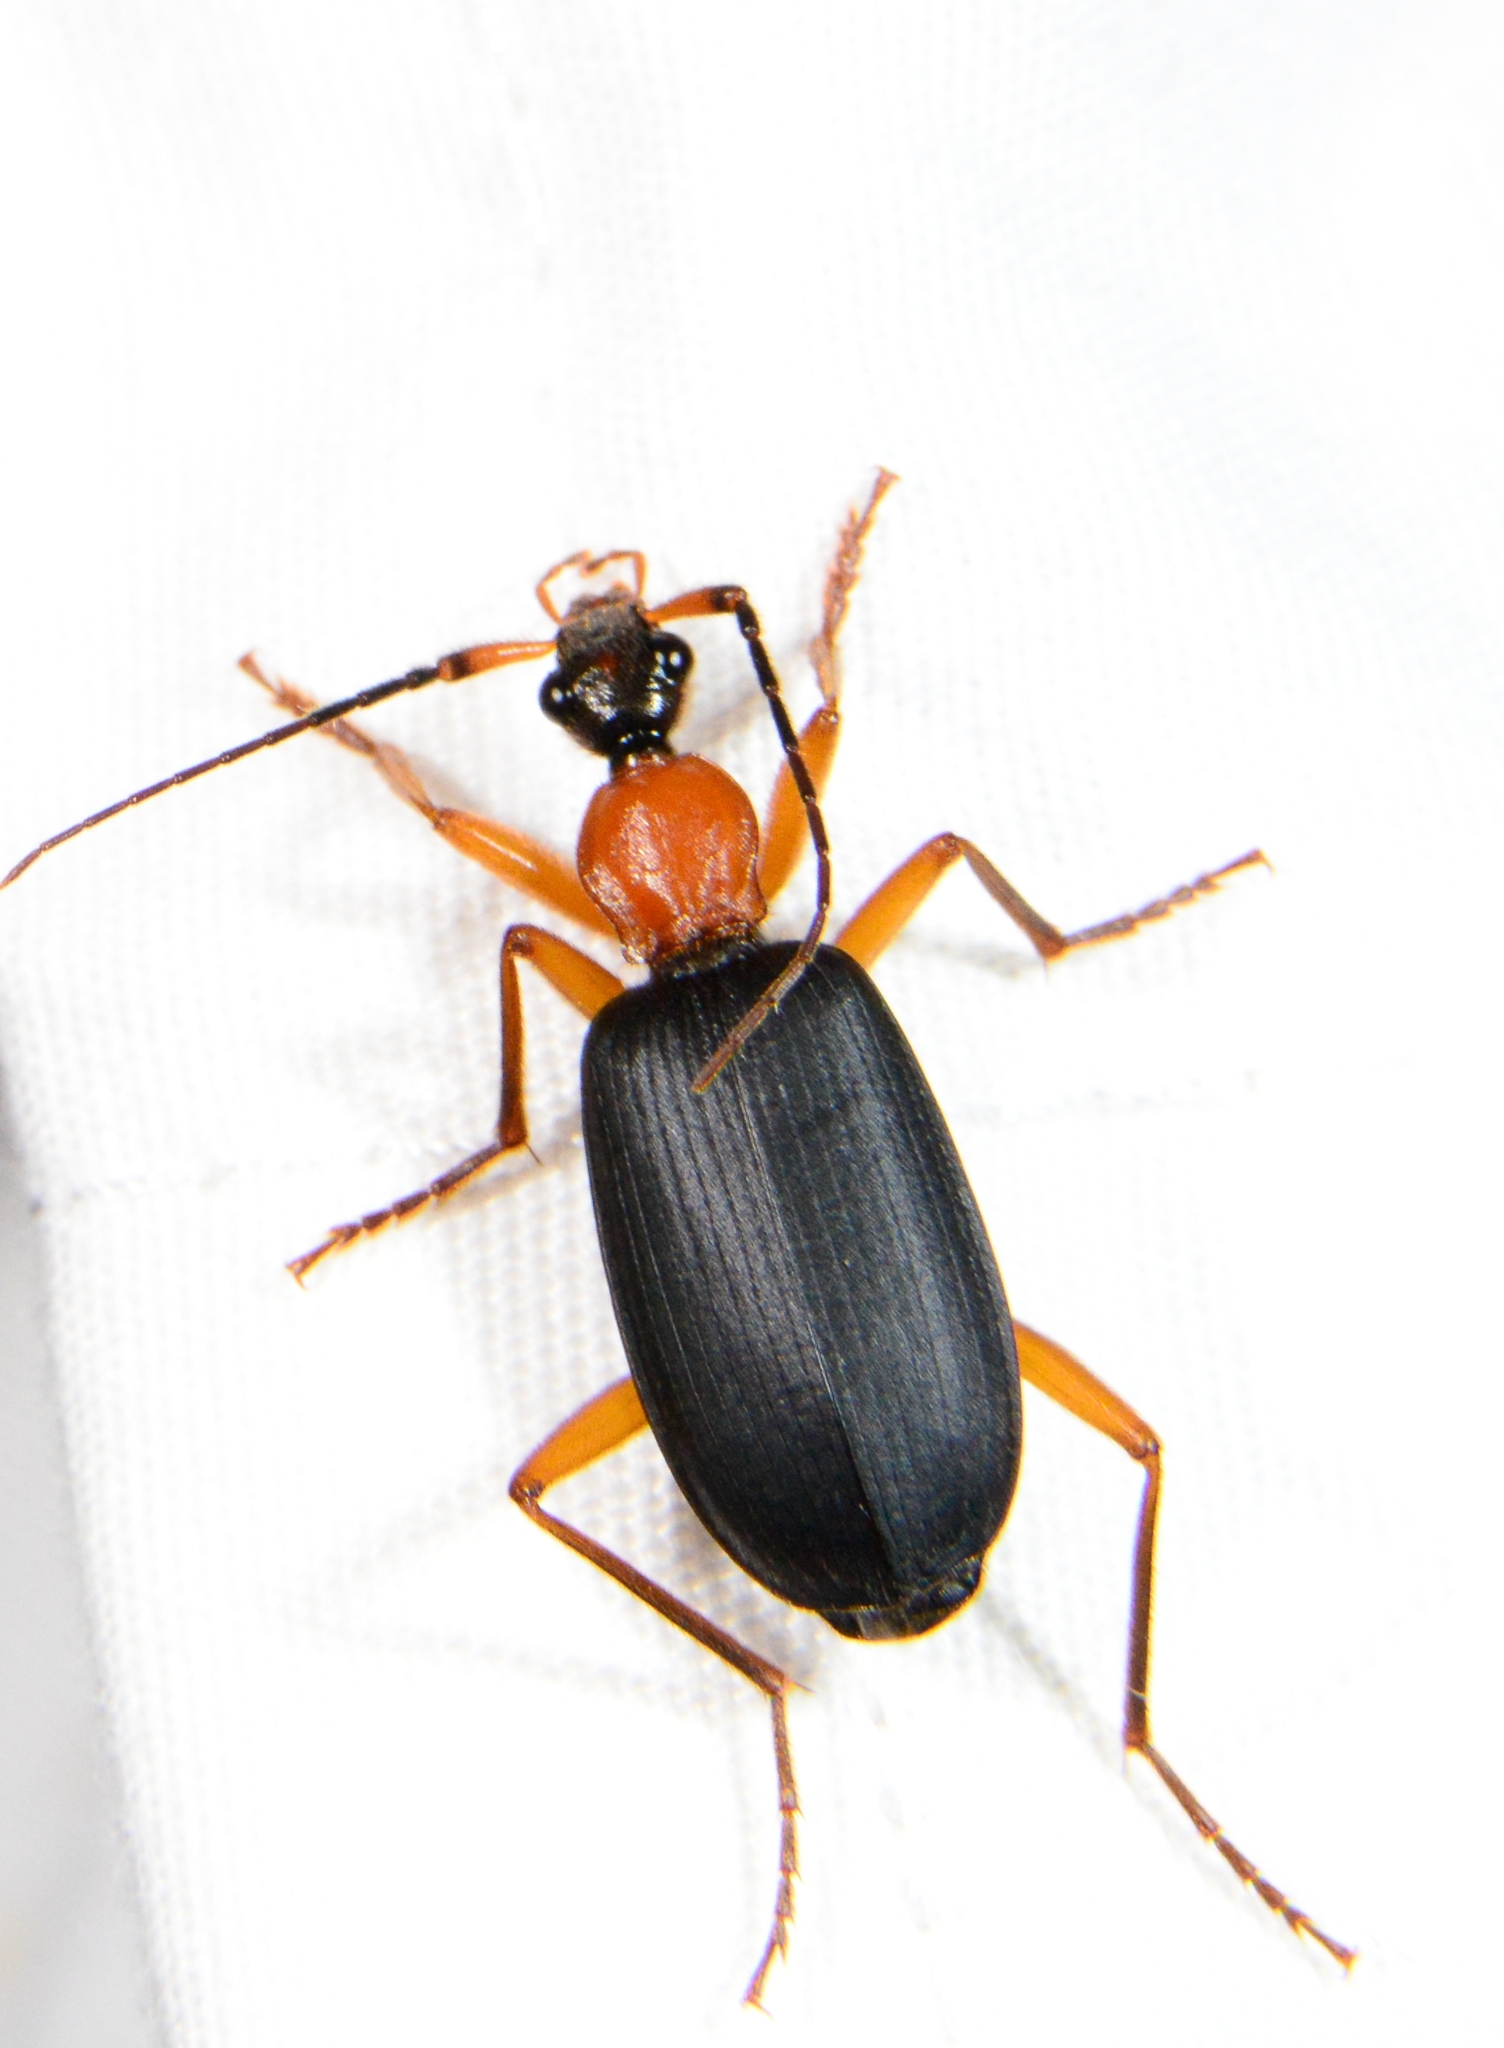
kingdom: Animalia
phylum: Arthropoda
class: Insecta
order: Coleoptera
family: Carabidae
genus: Galerita
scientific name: Galerita bicolor
